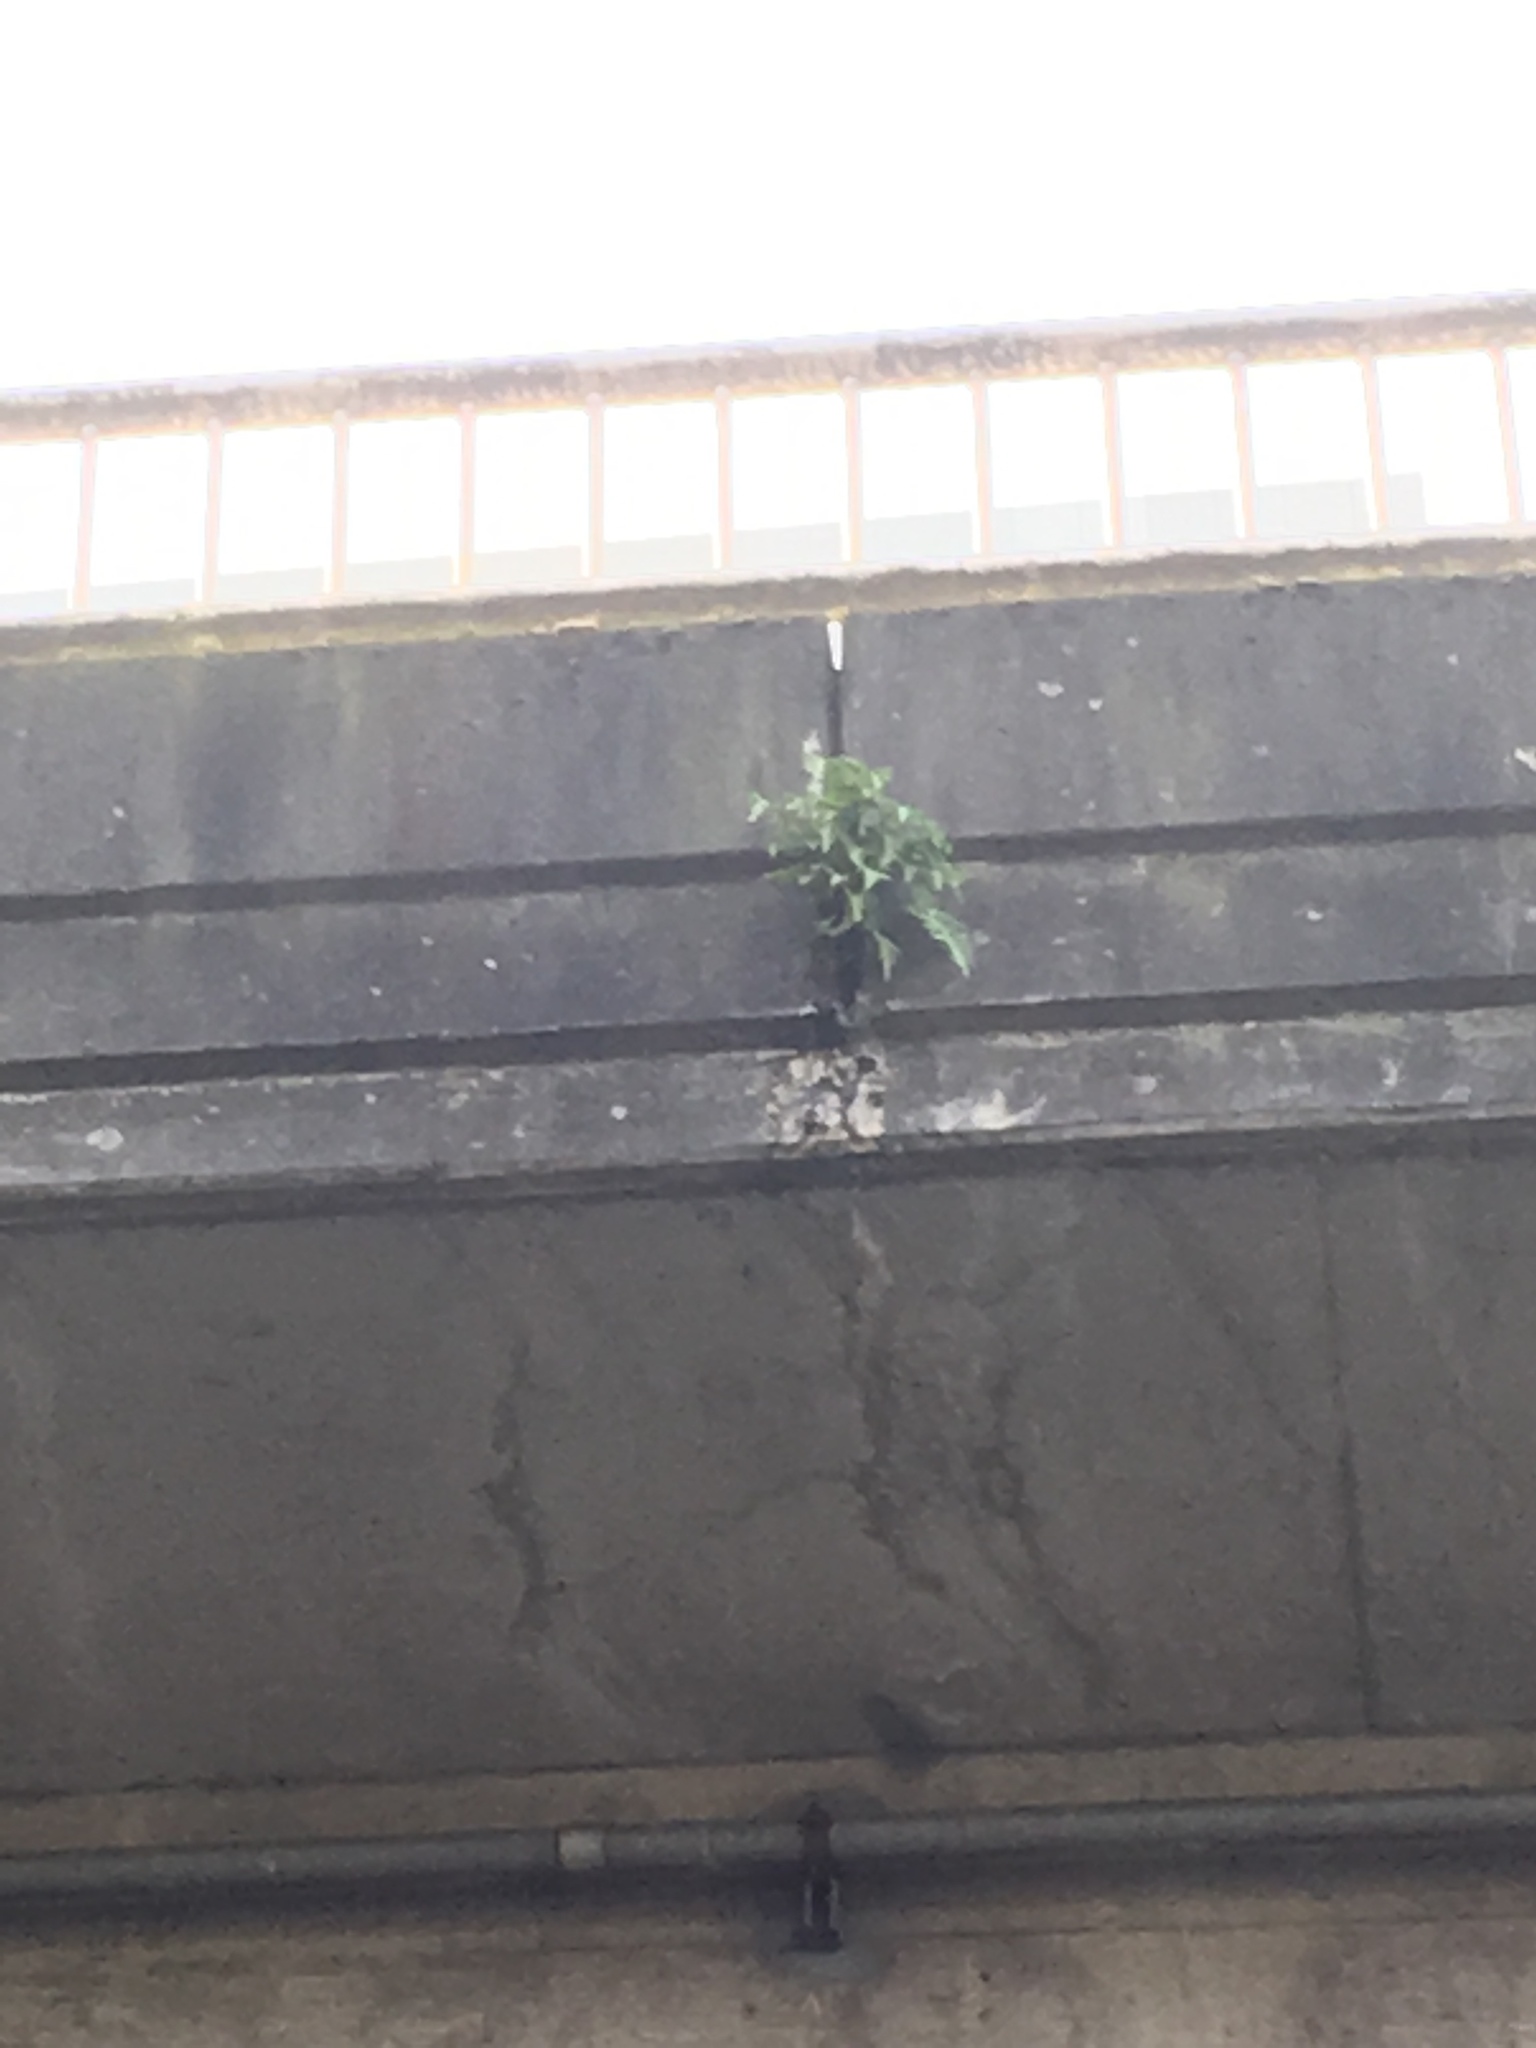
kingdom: Plantae
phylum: Tracheophyta
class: Polypodiopsida
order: Polypodiales
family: Polypodiaceae
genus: Polypodium
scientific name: Polypodium glycyrrhiza
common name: Licorice fern
